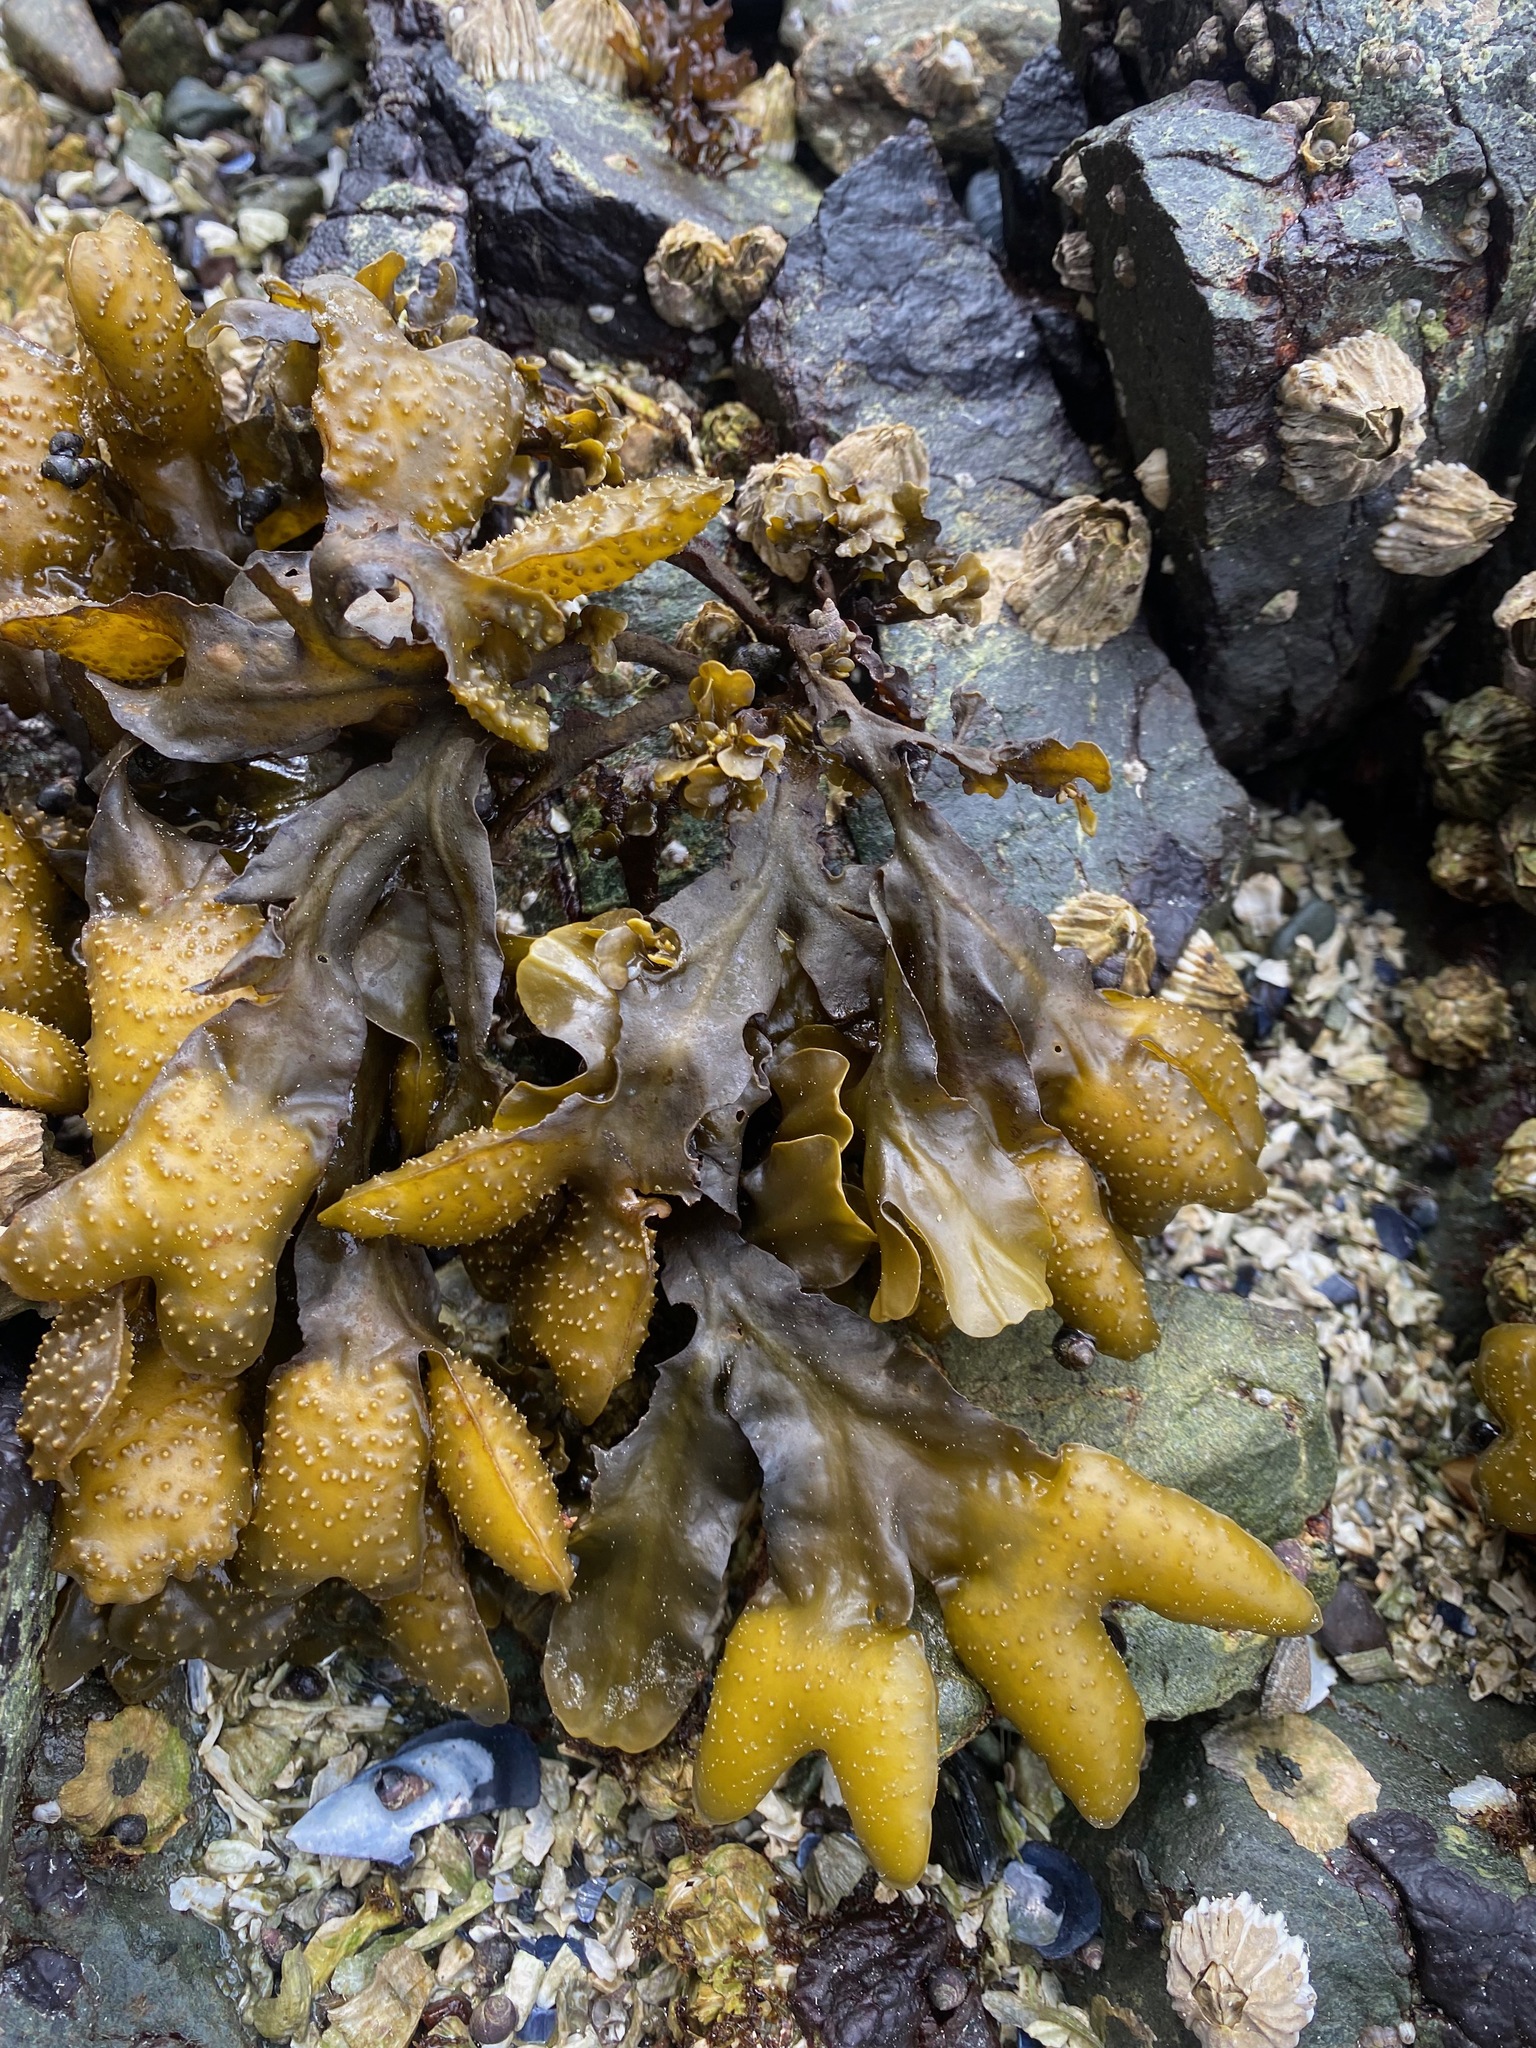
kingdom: Chromista
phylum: Ochrophyta
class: Phaeophyceae
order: Fucales
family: Fucaceae
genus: Fucus
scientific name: Fucus distichus
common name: Rockweed
